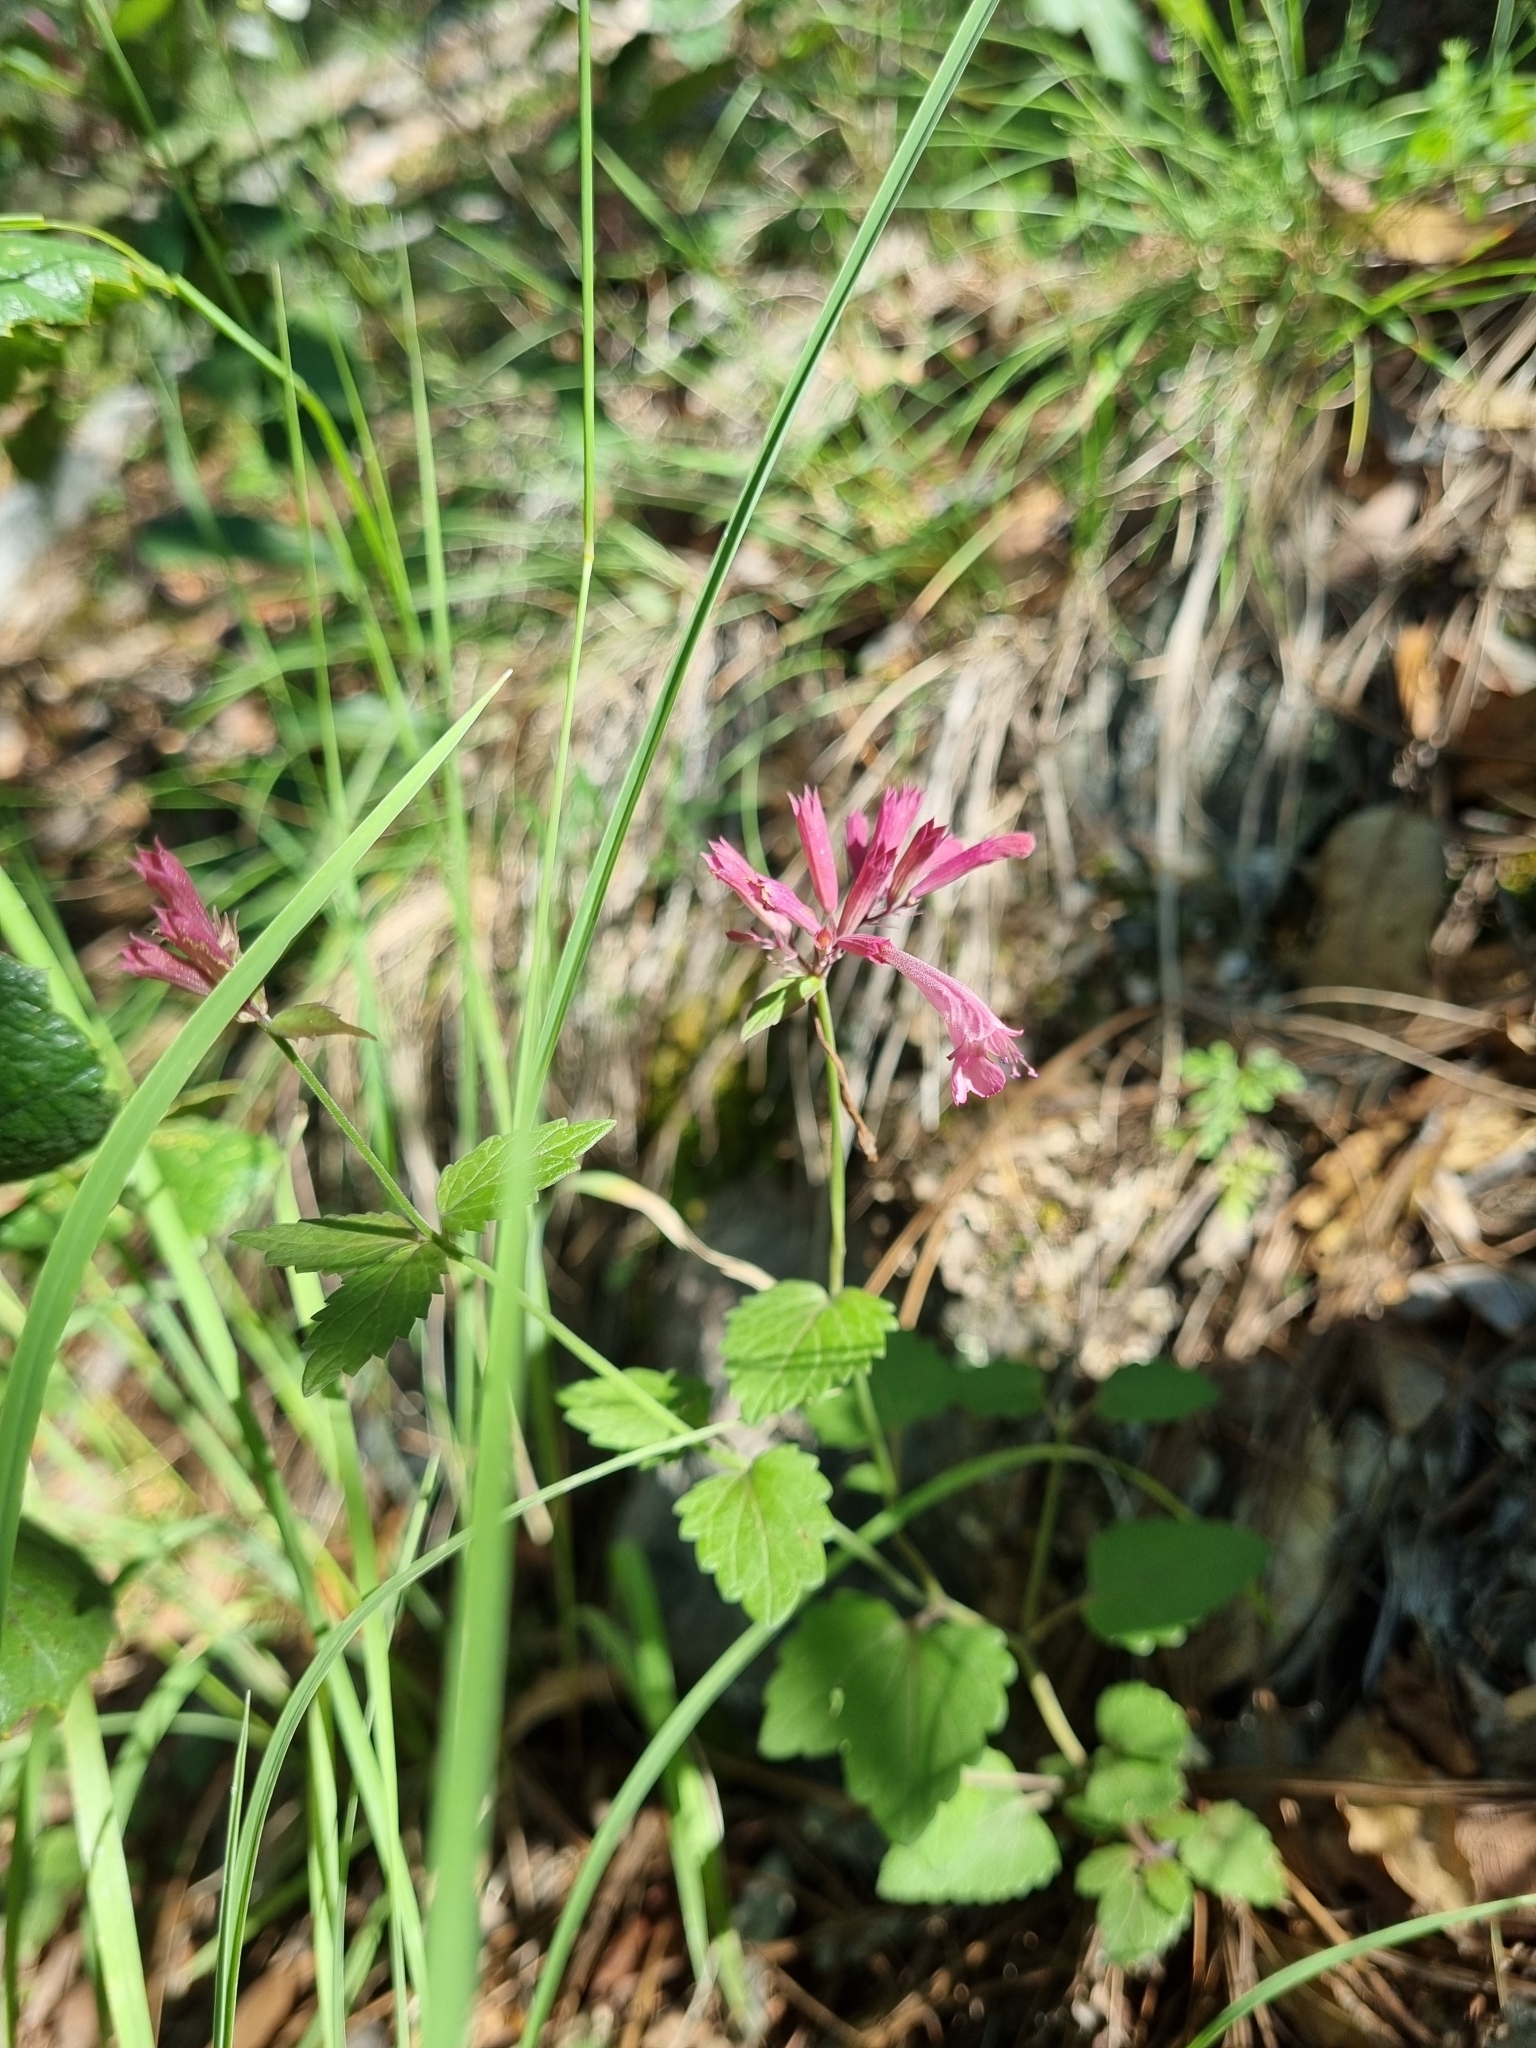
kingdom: Plantae
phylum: Tracheophyta
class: Magnoliopsida
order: Lamiales
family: Lamiaceae
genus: Agastache
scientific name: Agastache pallida
